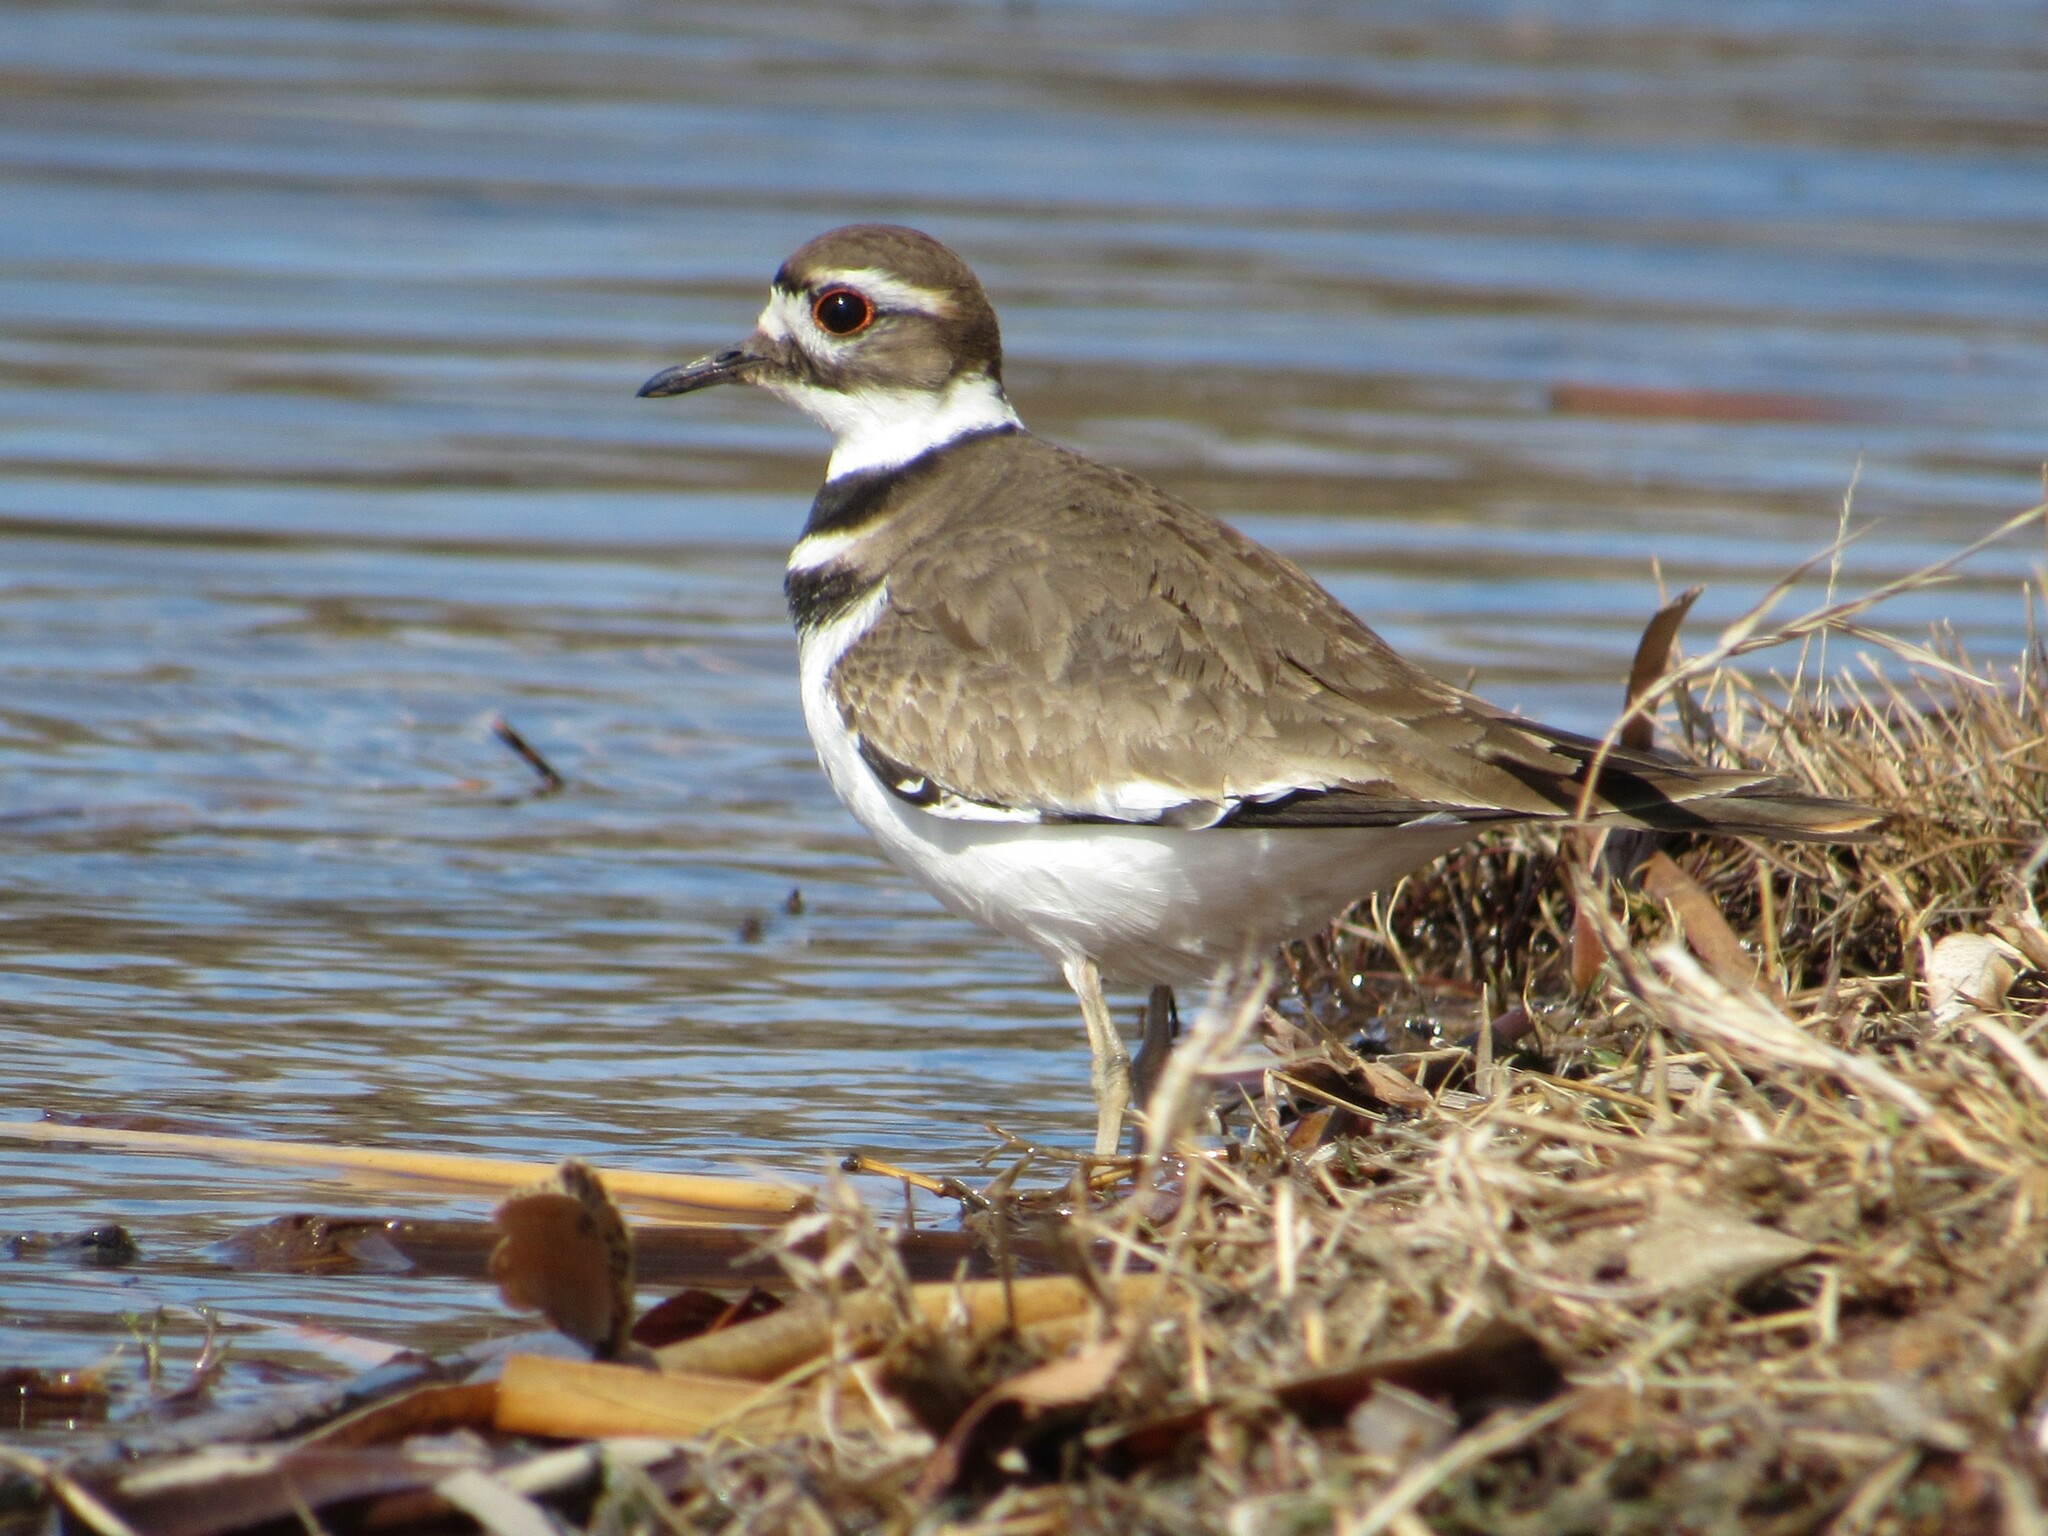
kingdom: Animalia
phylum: Chordata
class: Aves
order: Charadriiformes
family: Charadriidae
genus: Charadrius
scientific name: Charadrius vociferus
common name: Killdeer
